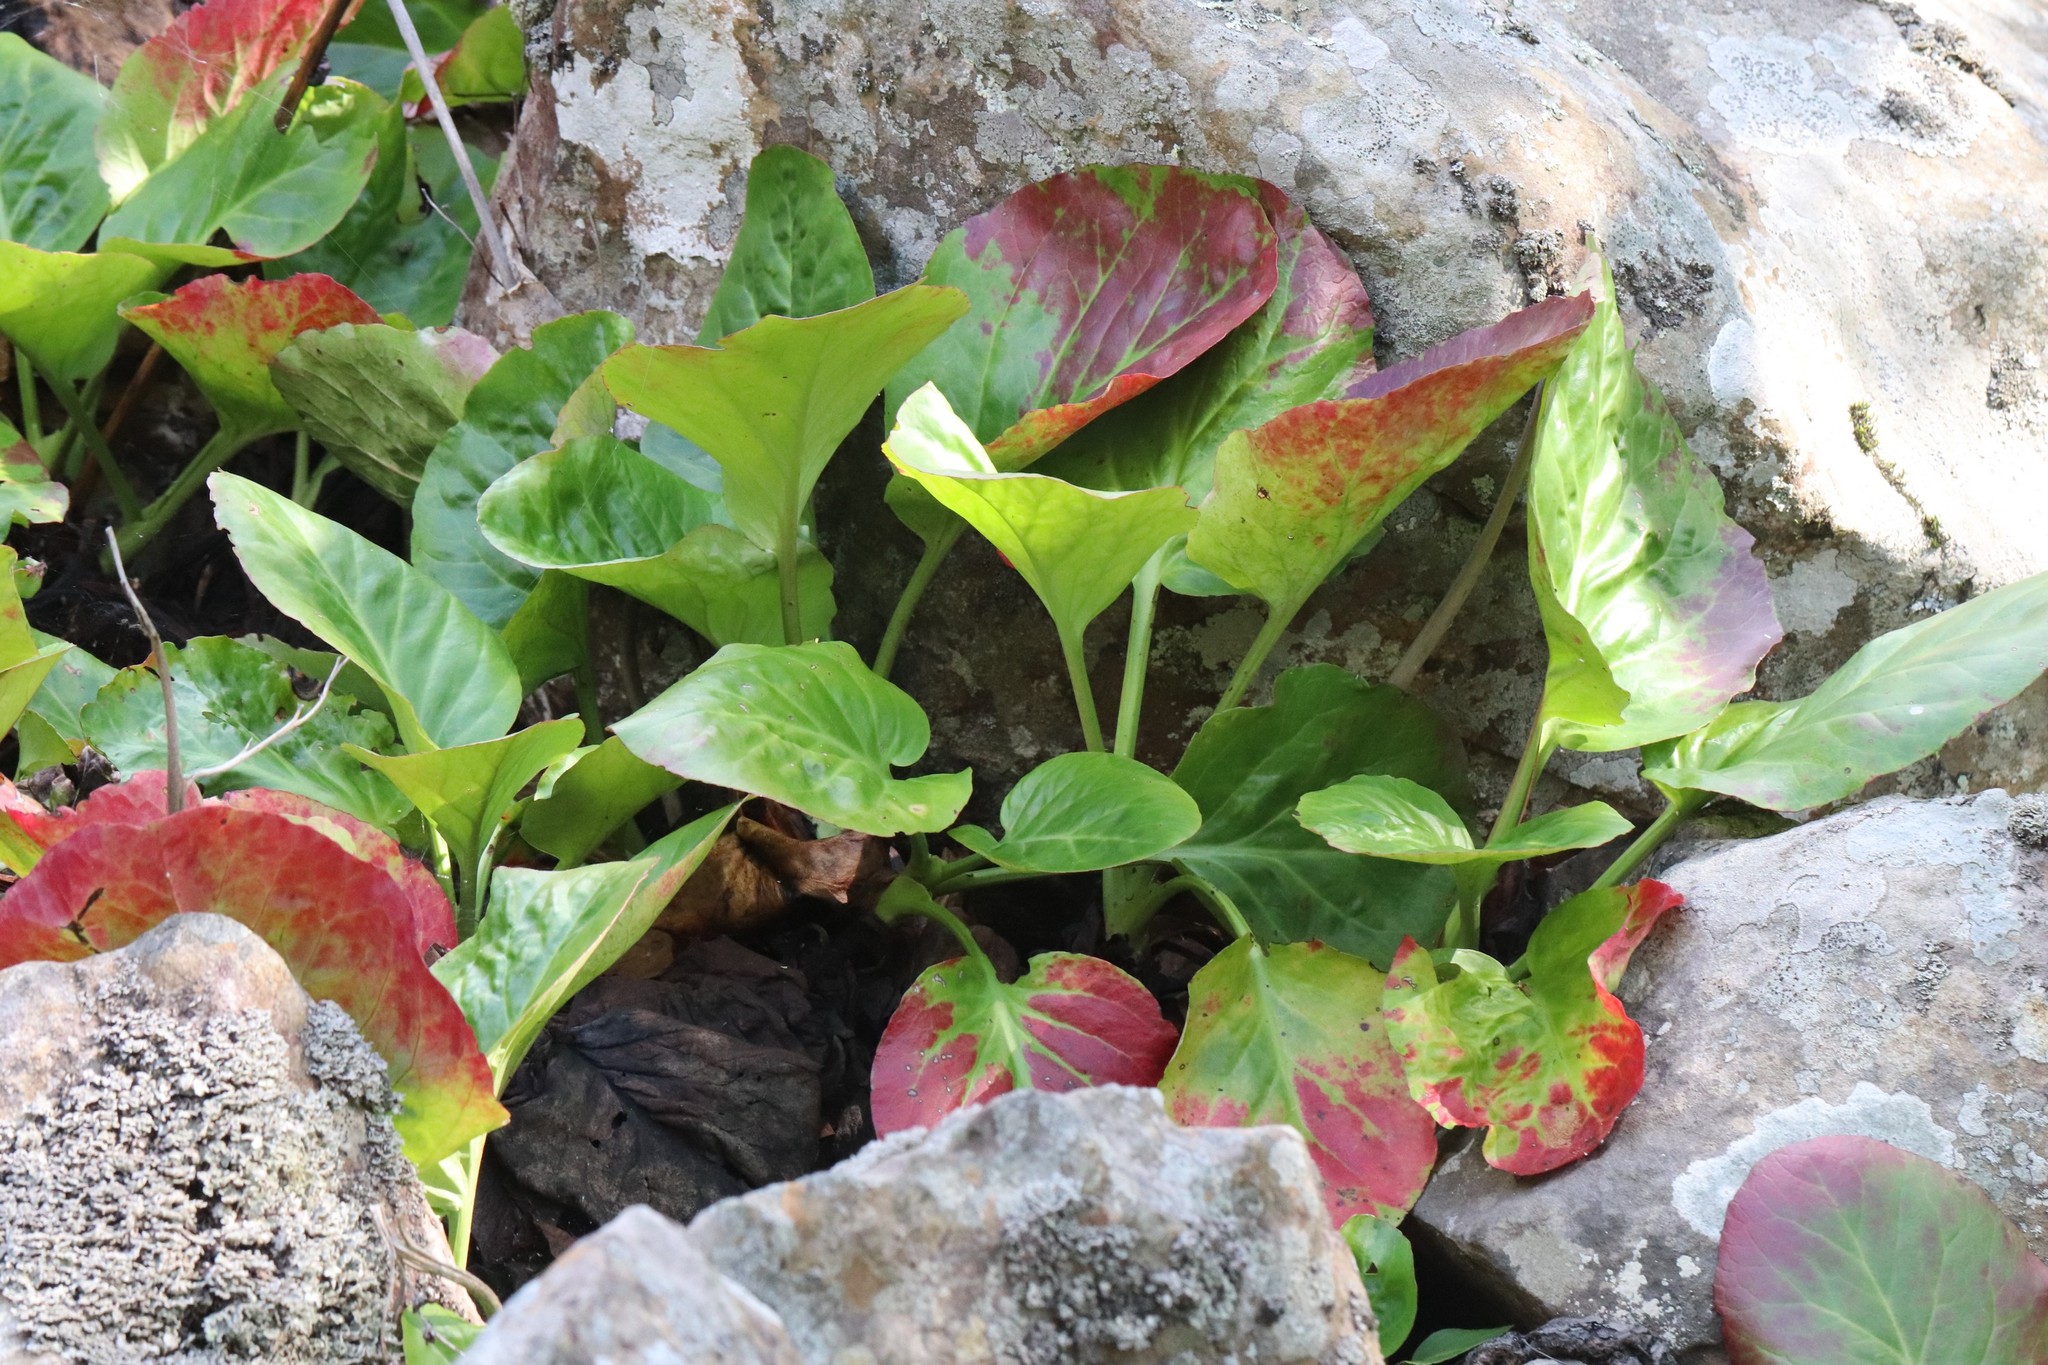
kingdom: Plantae
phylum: Tracheophyta
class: Magnoliopsida
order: Saxifragales
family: Saxifragaceae
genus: Bergenia
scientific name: Bergenia crassifolia
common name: Elephant-ears
